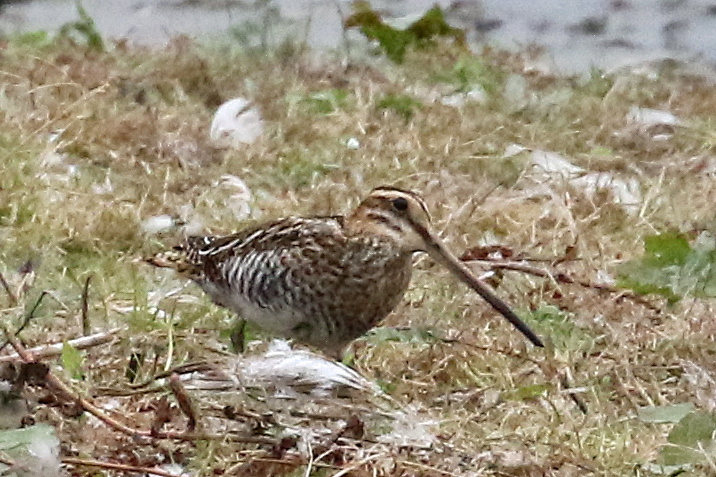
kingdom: Animalia
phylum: Chordata
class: Aves
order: Charadriiformes
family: Scolopacidae
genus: Gallinago
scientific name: Gallinago gallinago
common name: Common snipe
